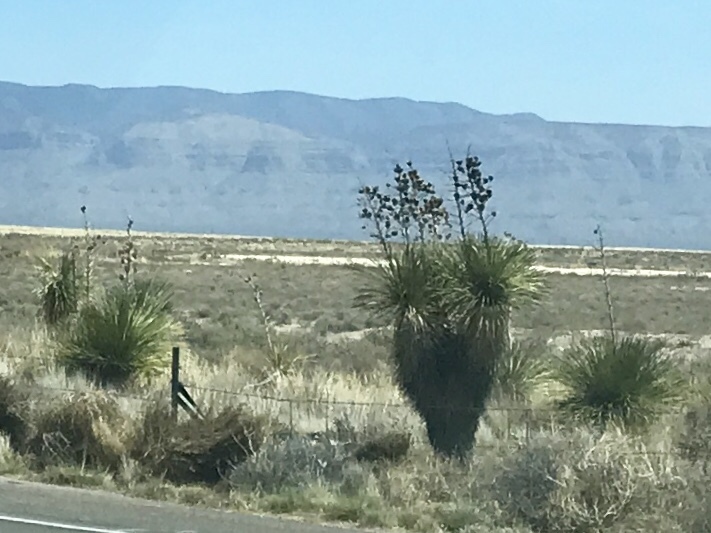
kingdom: Plantae
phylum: Tracheophyta
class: Liliopsida
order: Asparagales
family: Asparagaceae
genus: Yucca
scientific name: Yucca elata
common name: Palmella
